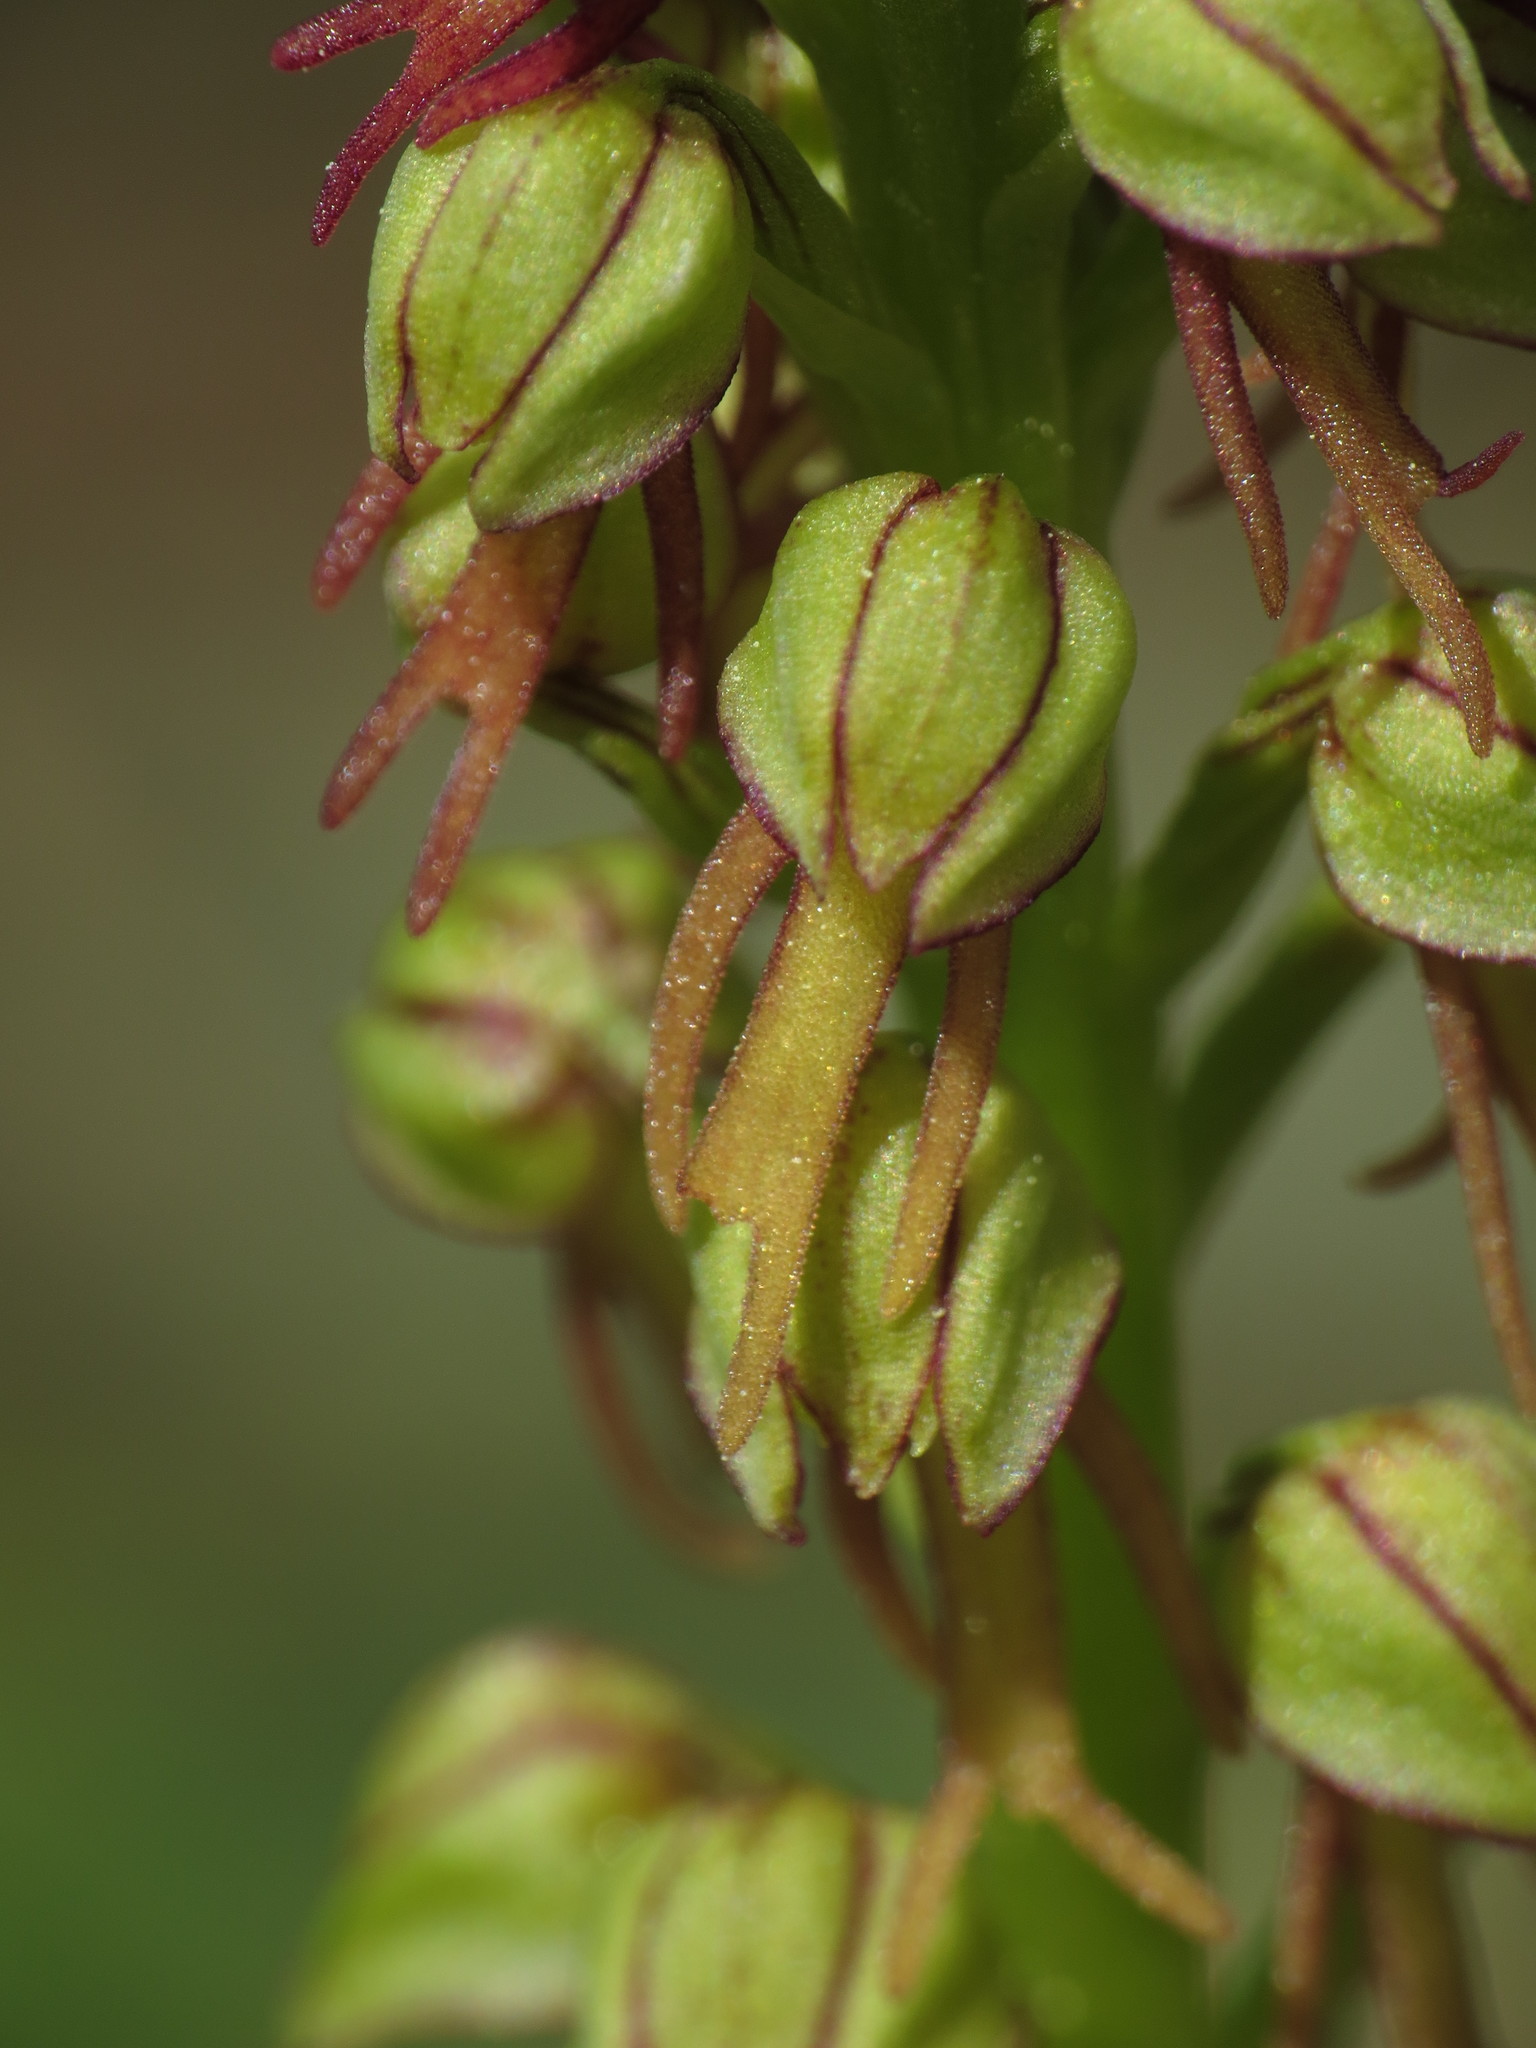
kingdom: Plantae
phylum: Tracheophyta
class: Liliopsida
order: Asparagales
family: Orchidaceae
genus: Orchis
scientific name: Orchis anthropophora
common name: Man orchid
